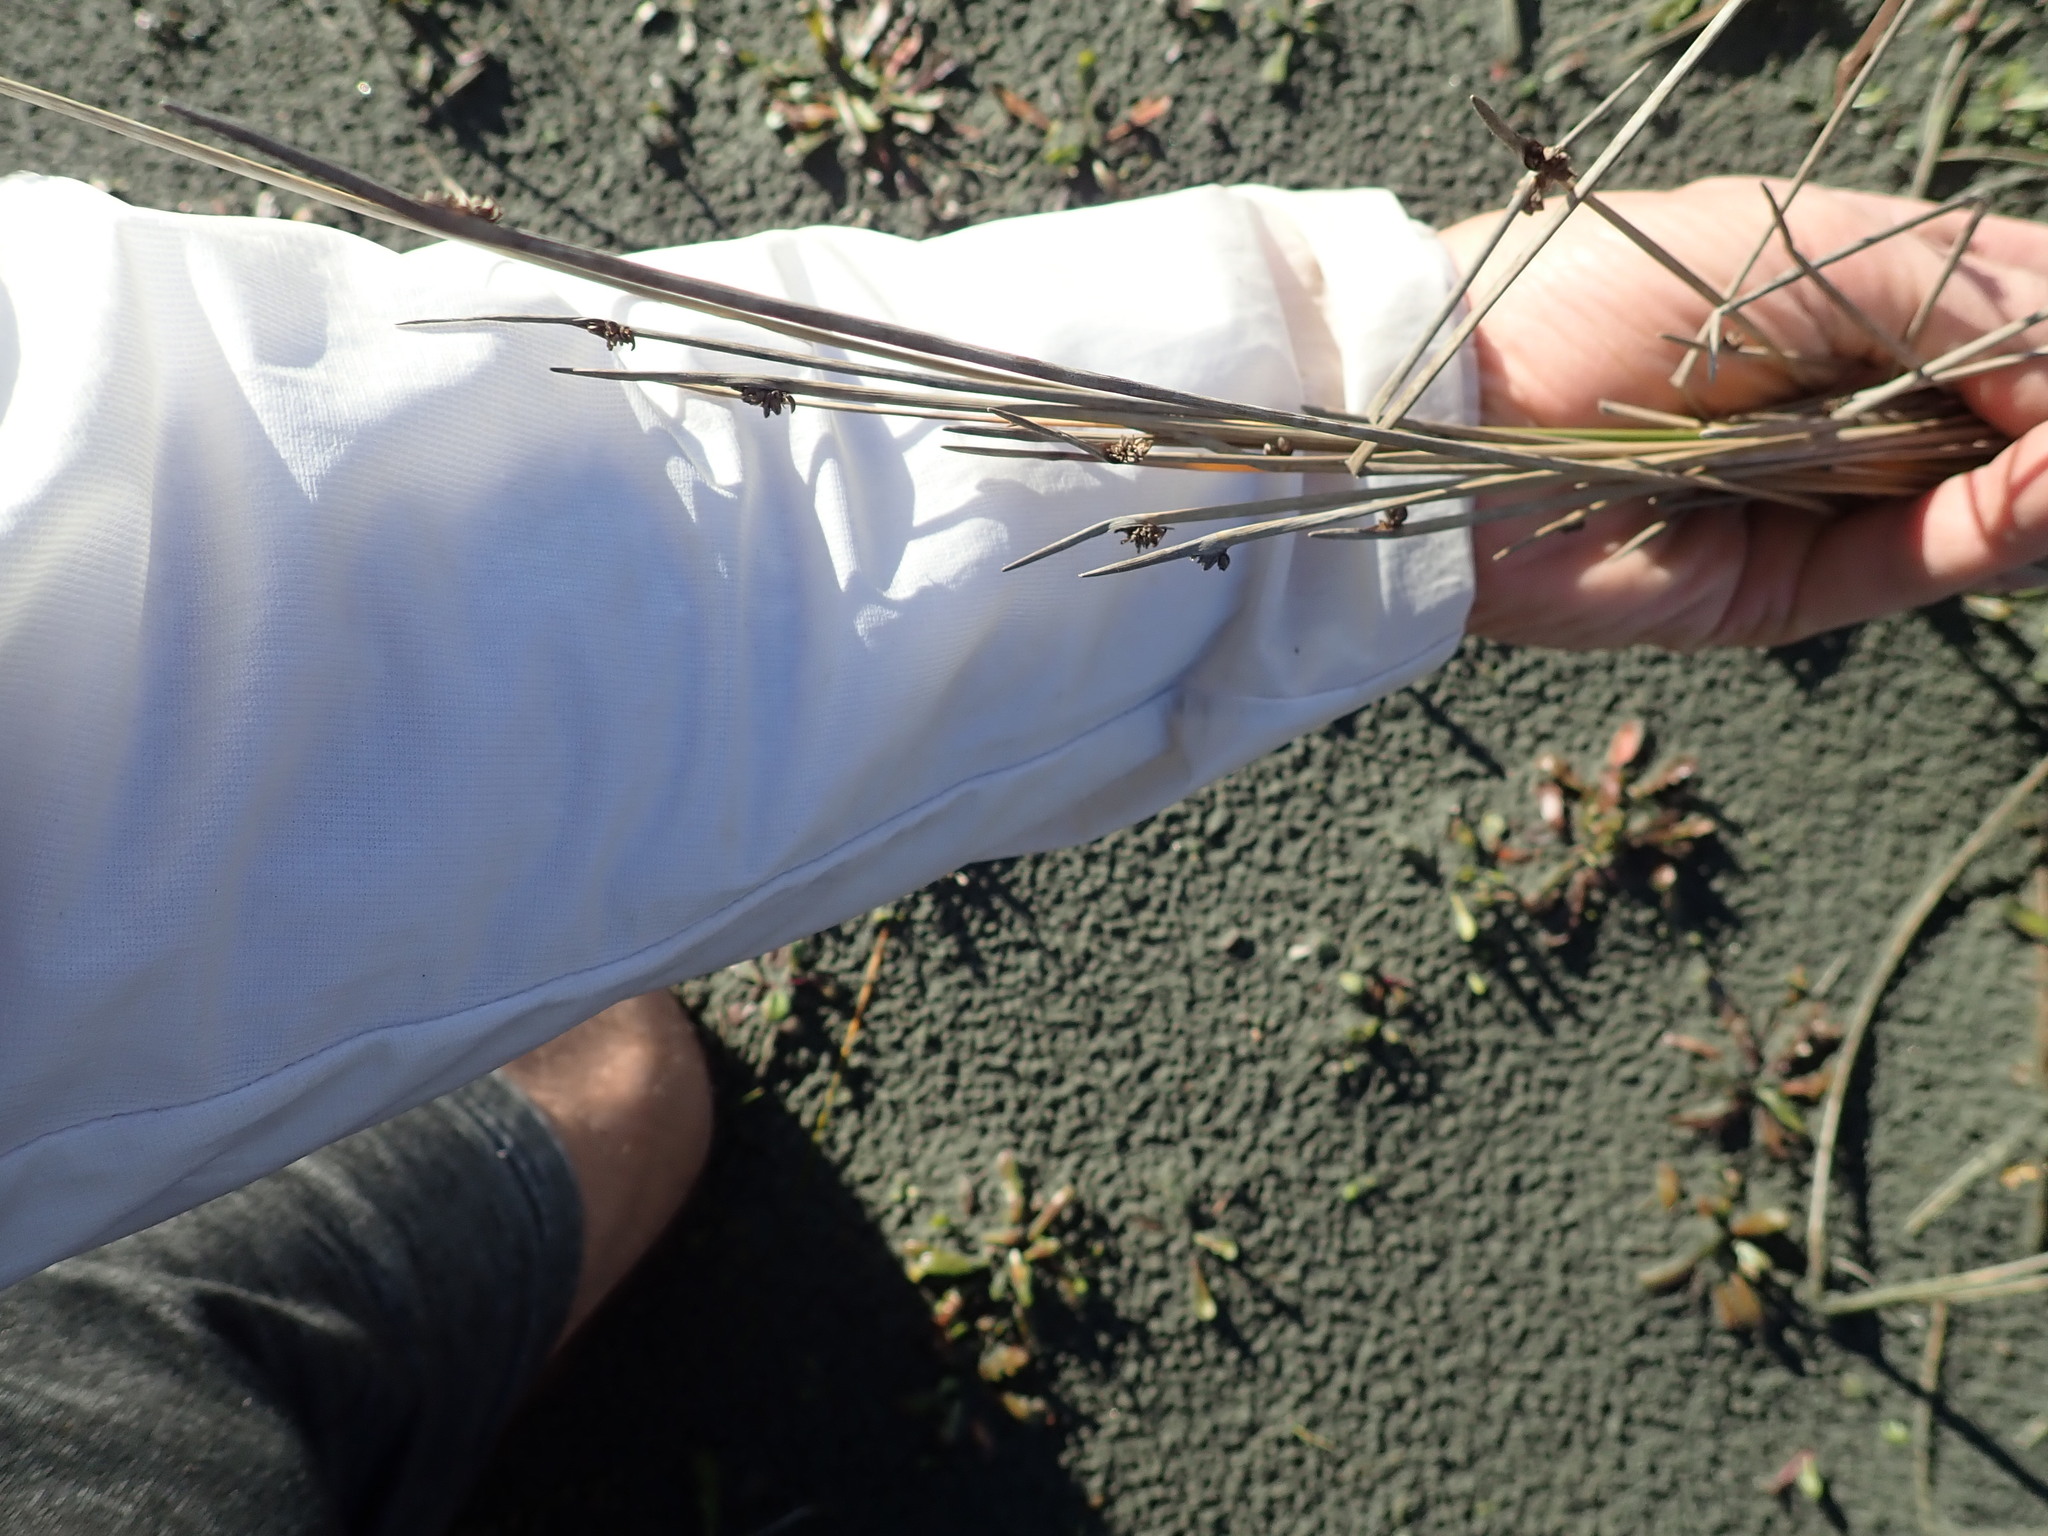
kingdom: Plantae
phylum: Tracheophyta
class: Liliopsida
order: Poales
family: Cyperaceae
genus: Ficinia
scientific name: Ficinia nodosa
